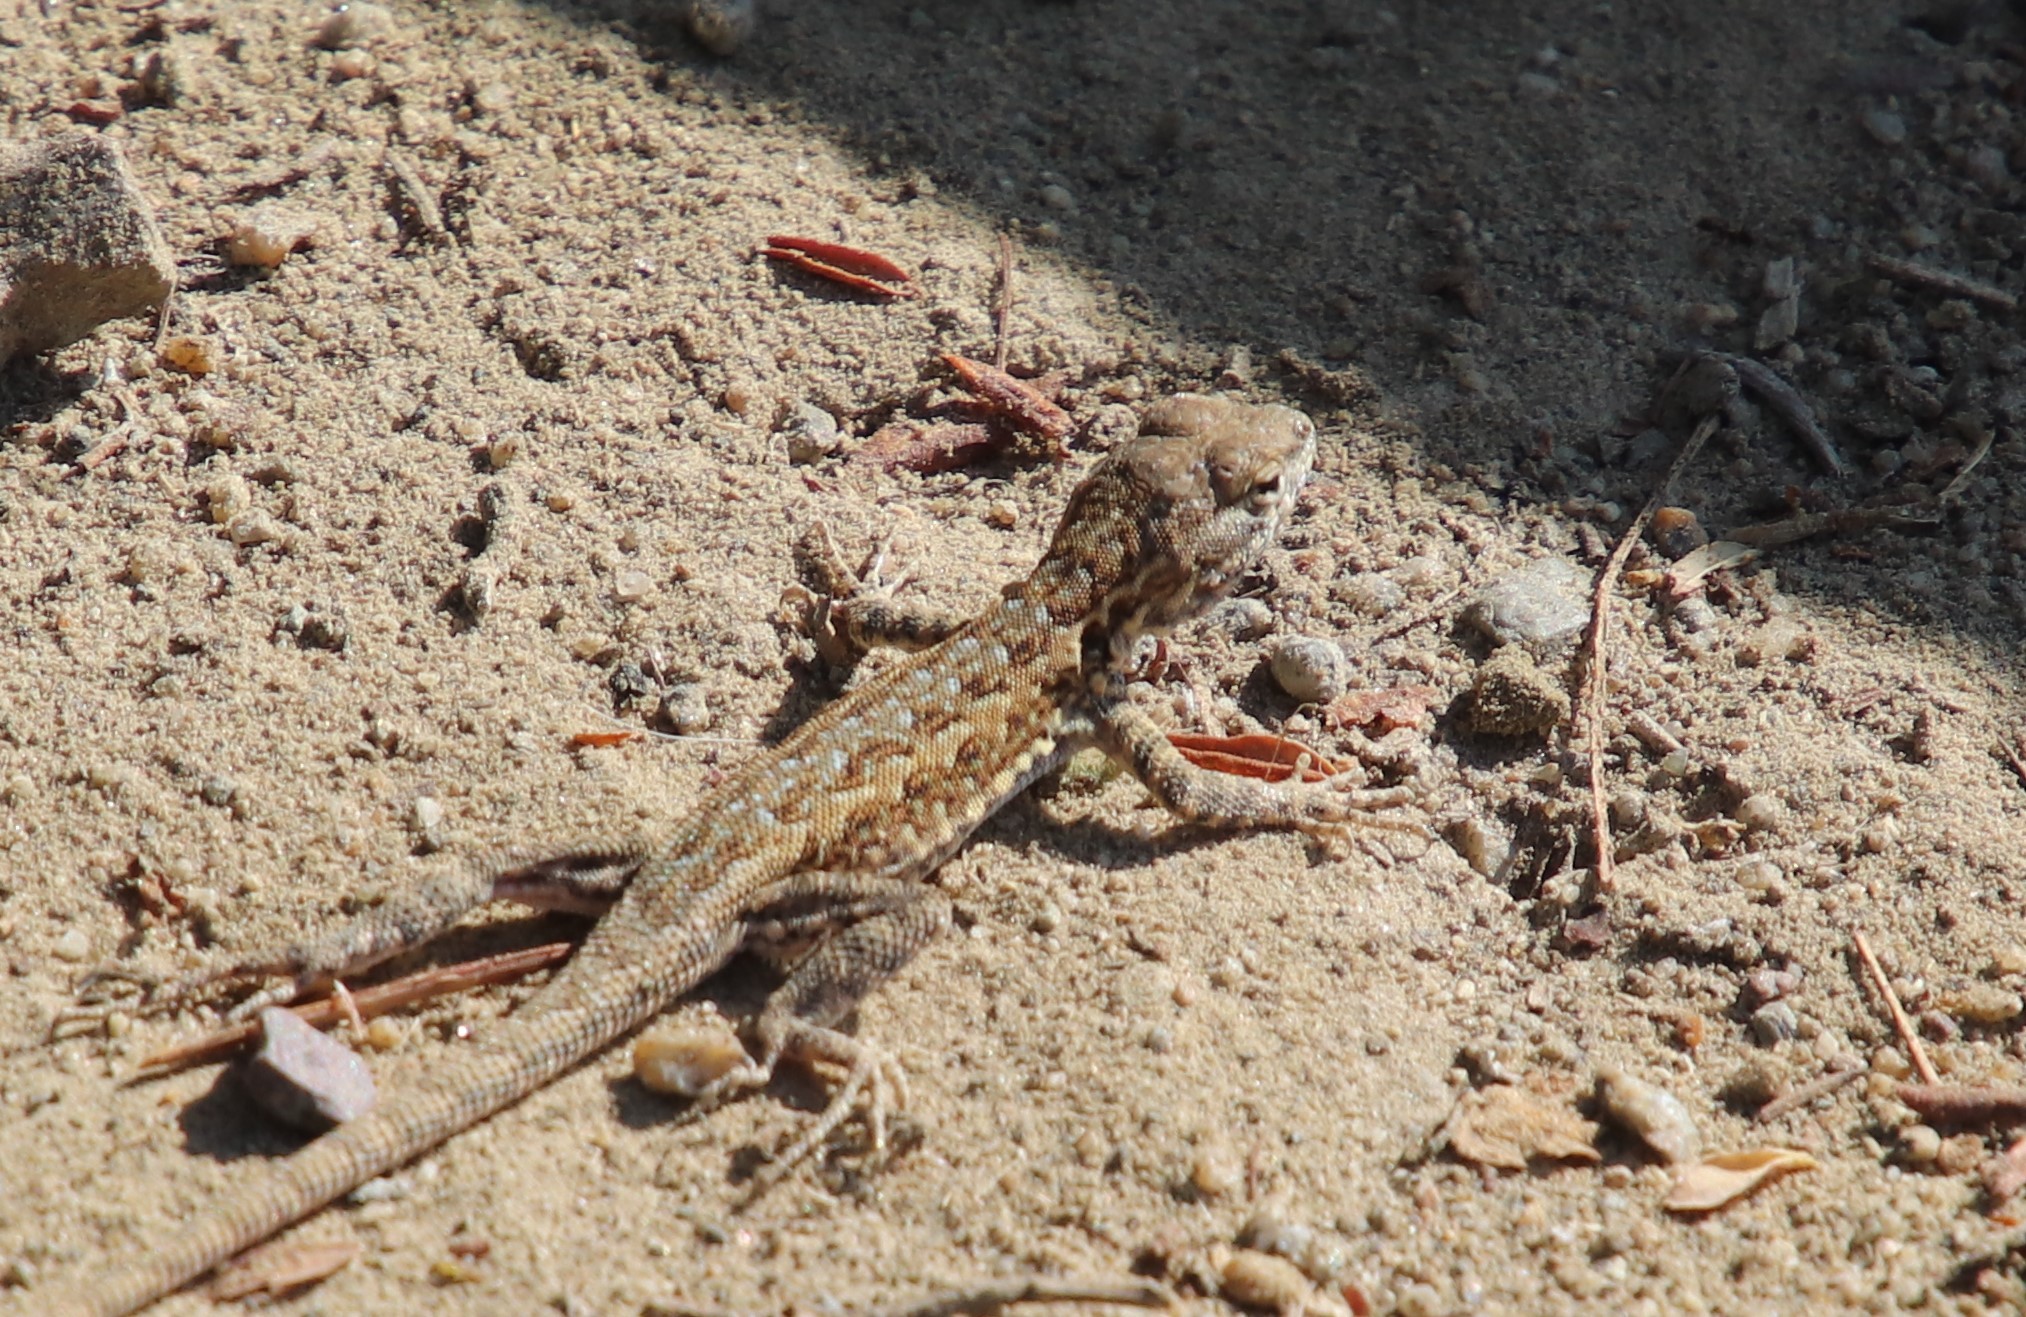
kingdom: Animalia
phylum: Chordata
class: Squamata
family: Phrynosomatidae
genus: Uta
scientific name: Uta stansburiana
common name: Side-blotched lizard
